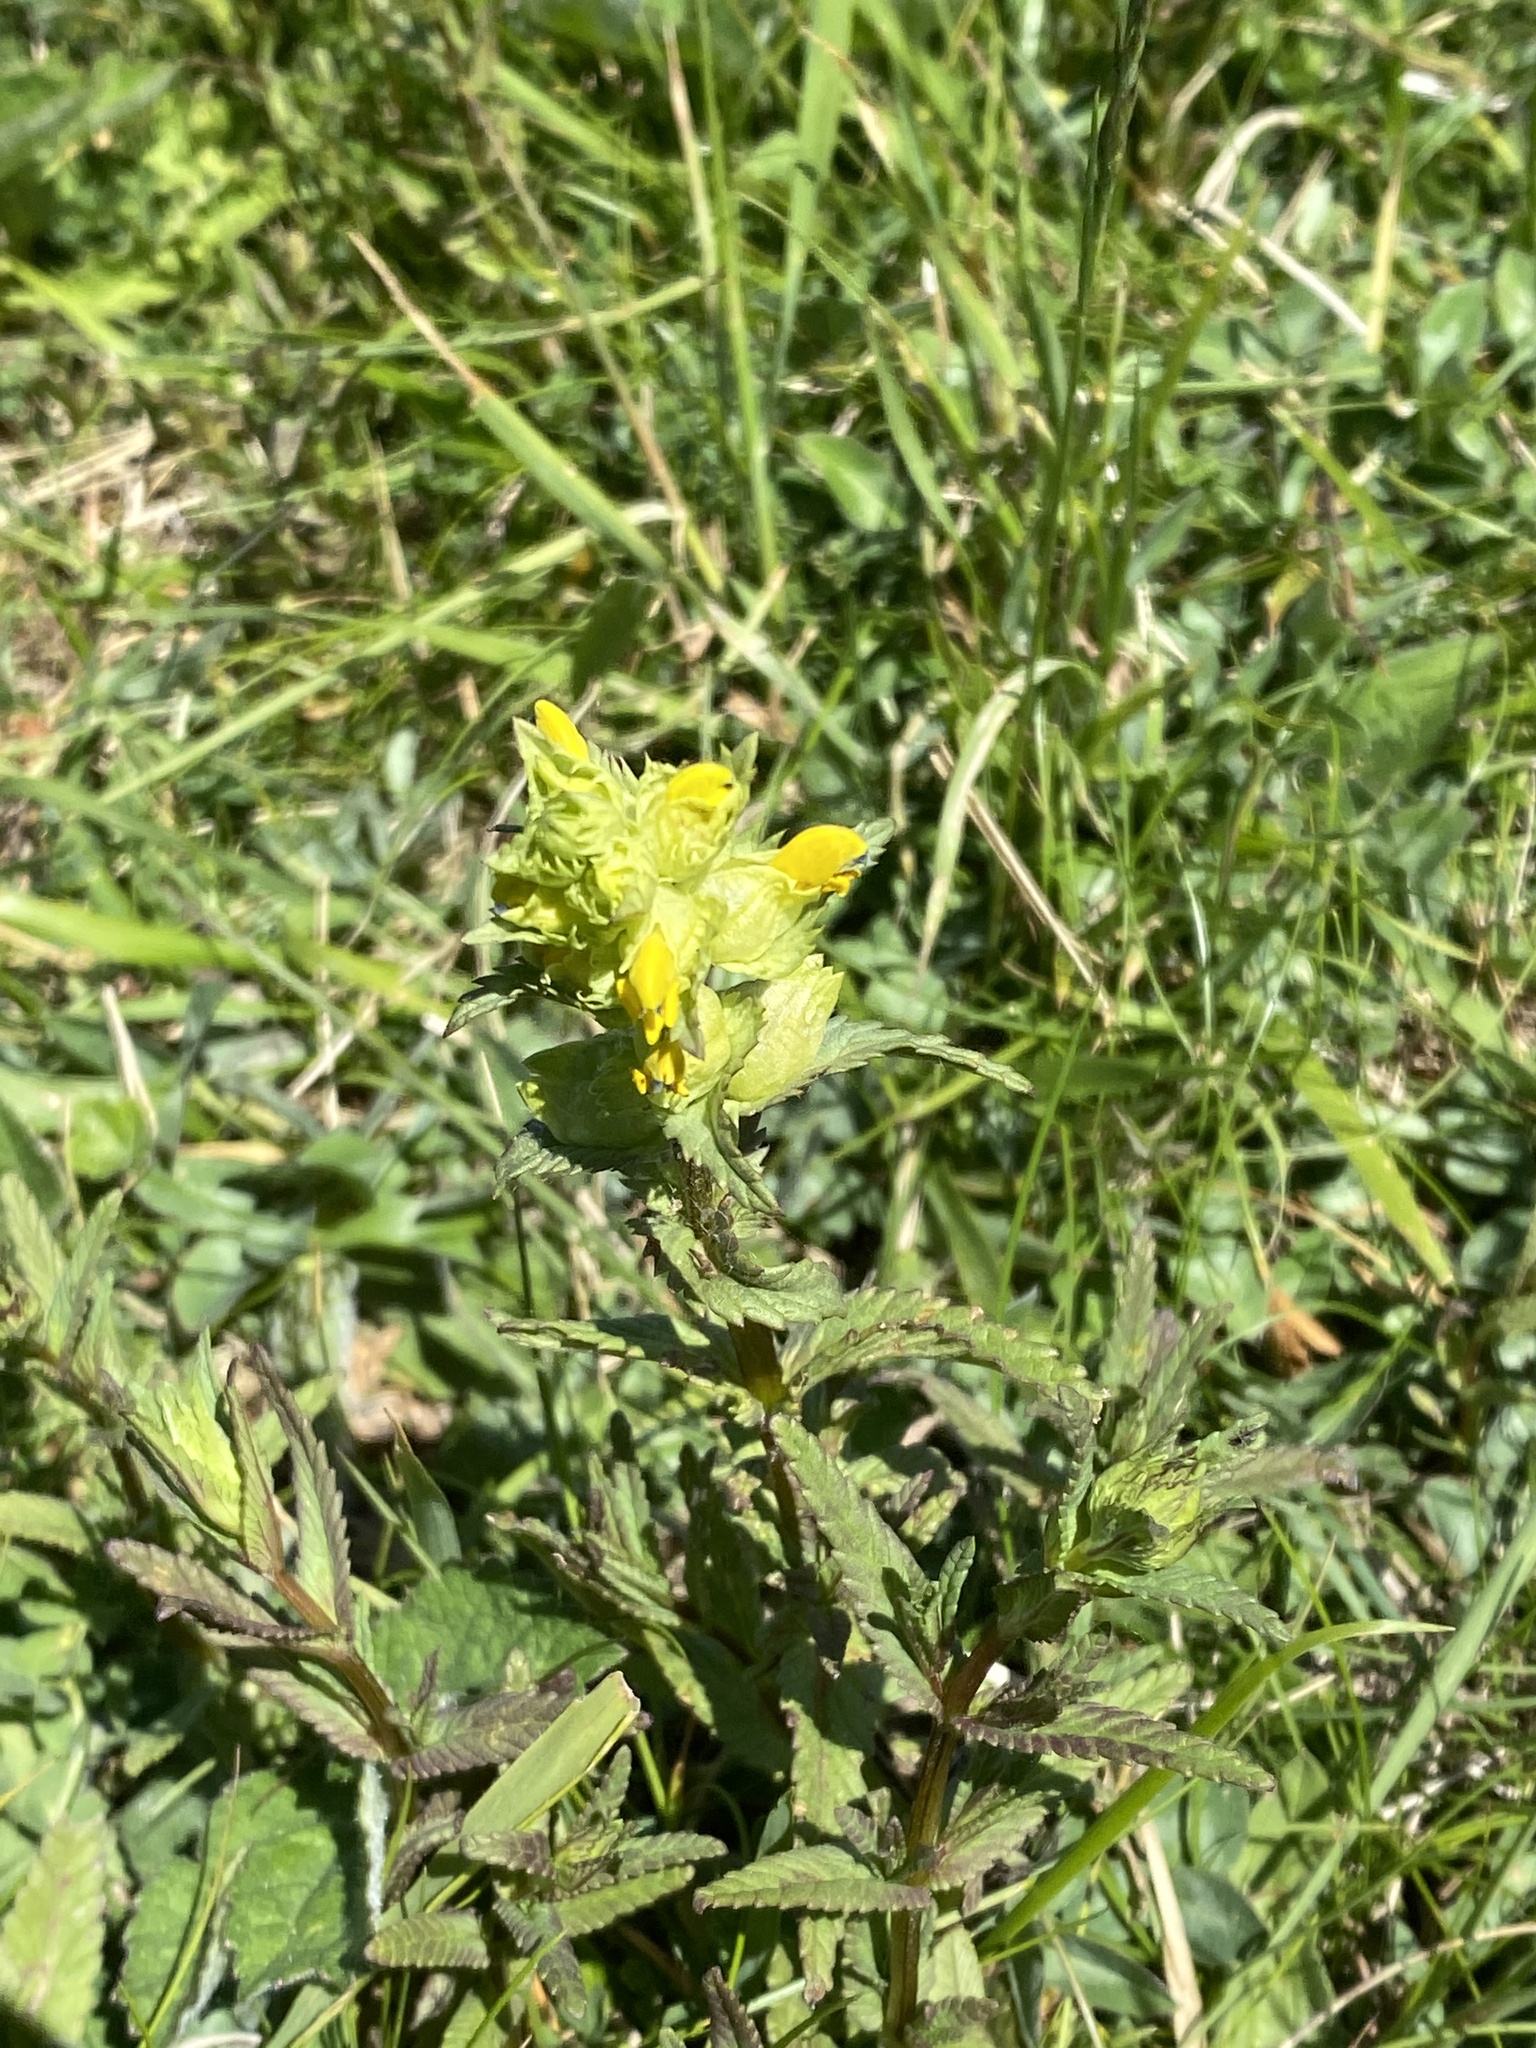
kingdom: Plantae
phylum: Tracheophyta
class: Magnoliopsida
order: Lamiales
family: Orobanchaceae
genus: Rhinanthus
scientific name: Rhinanthus minor
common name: Yellow-rattle
